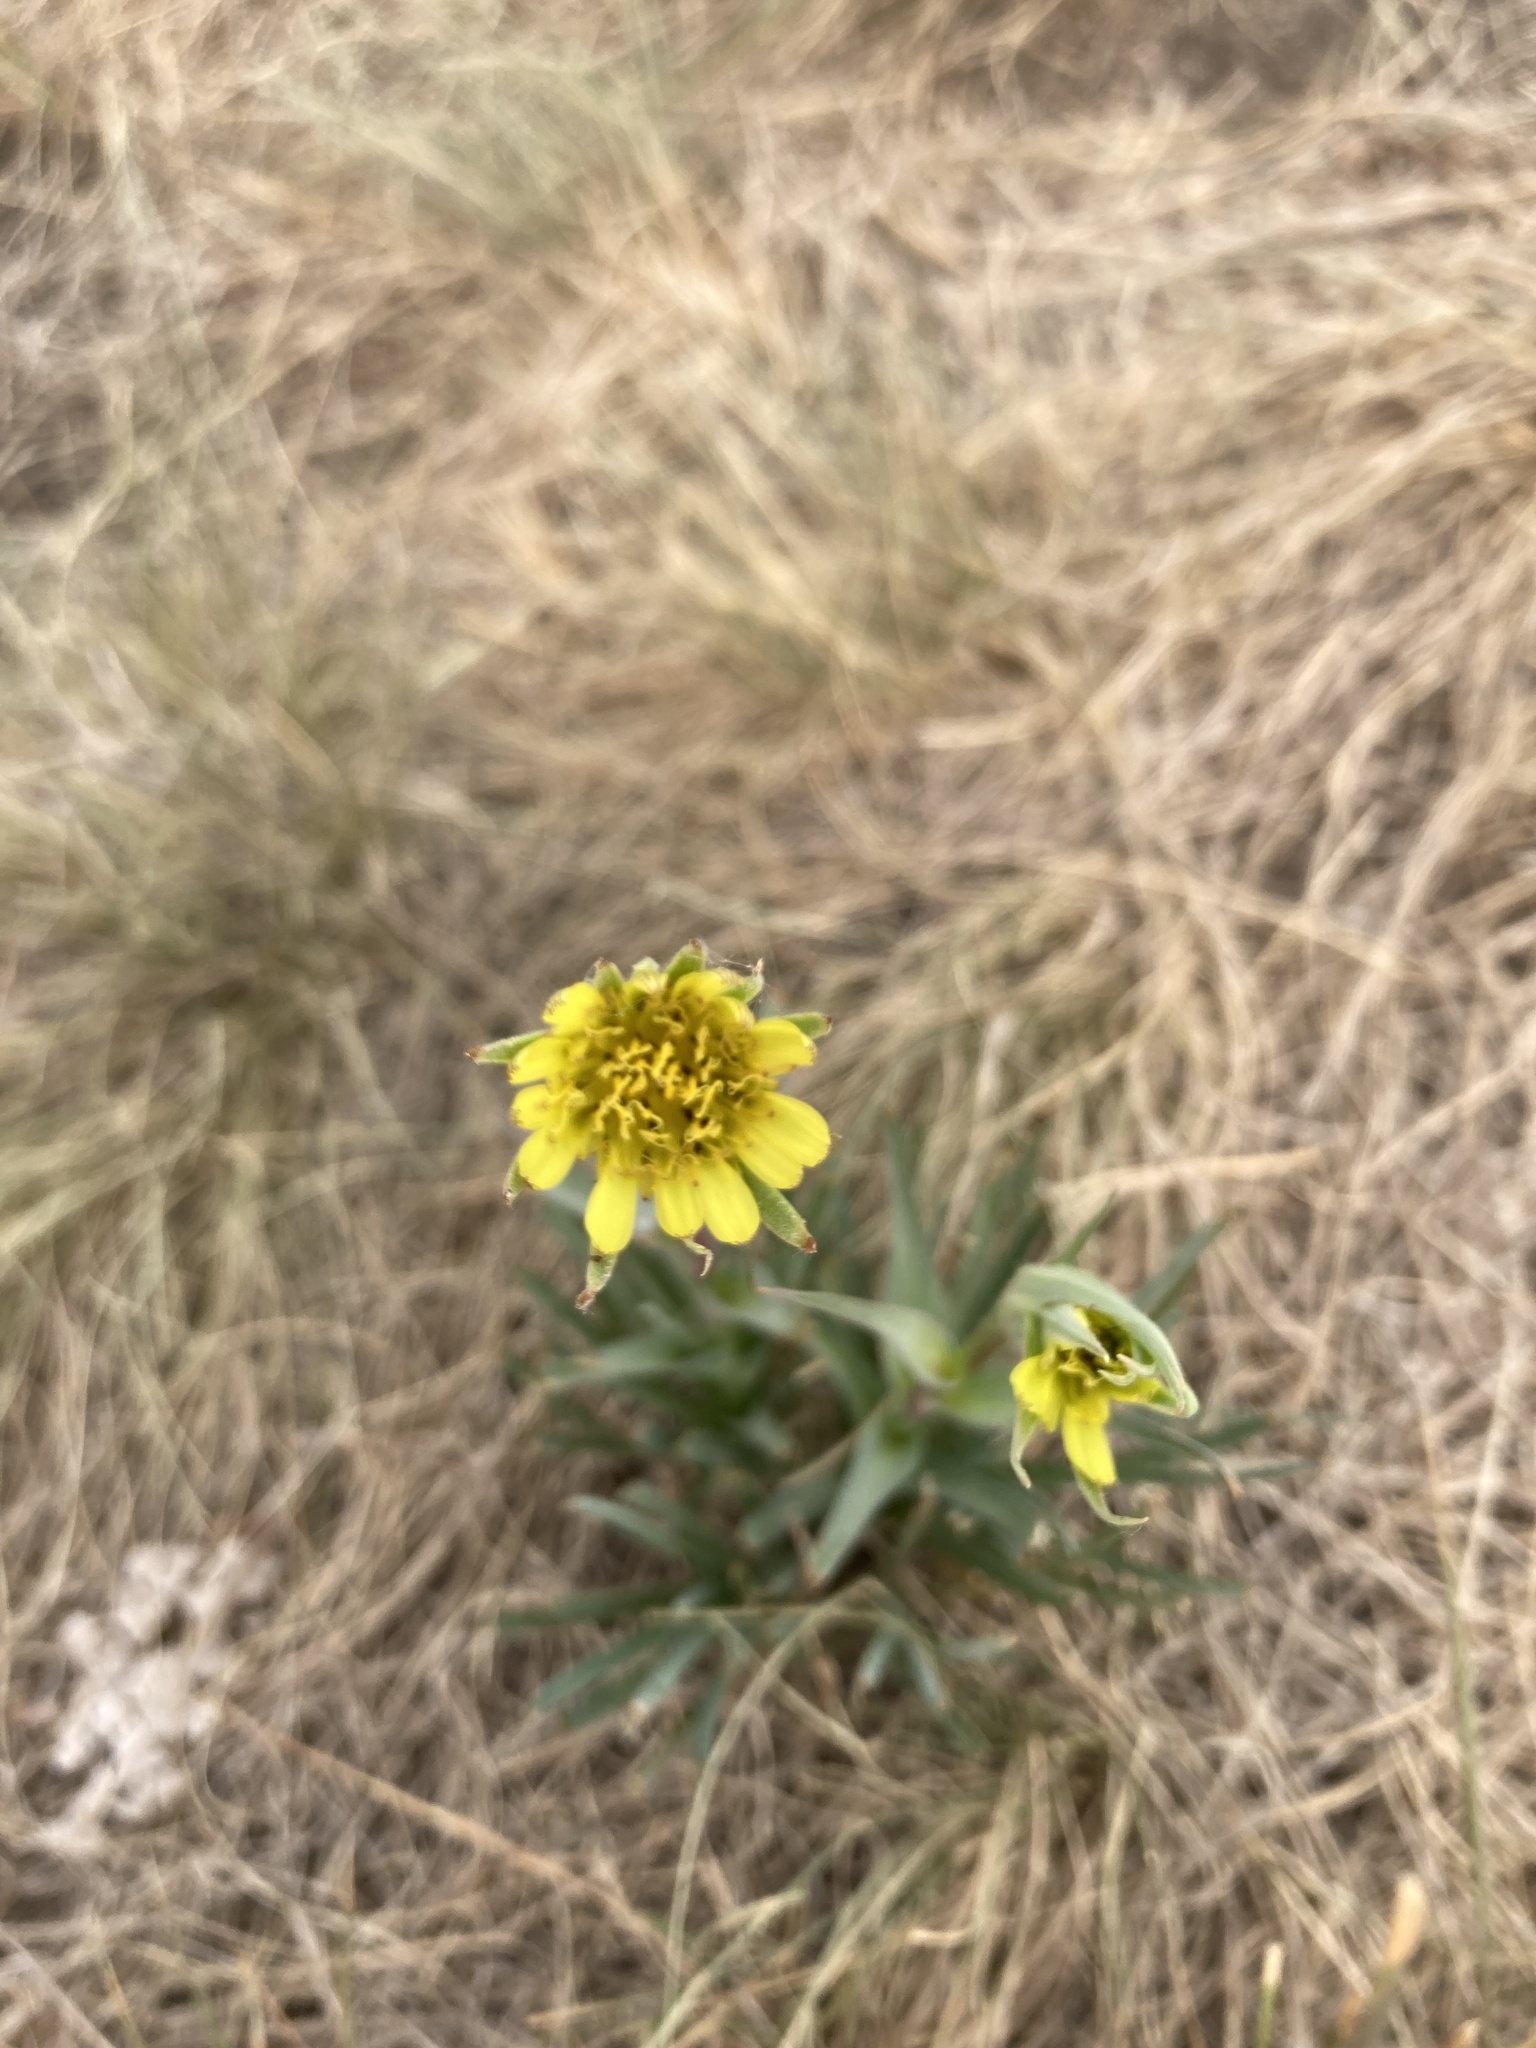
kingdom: Plantae
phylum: Tracheophyta
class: Magnoliopsida
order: Asterales
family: Asteraceae
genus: Tragopogon
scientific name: Tragopogon dubius
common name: Yellow salsify
